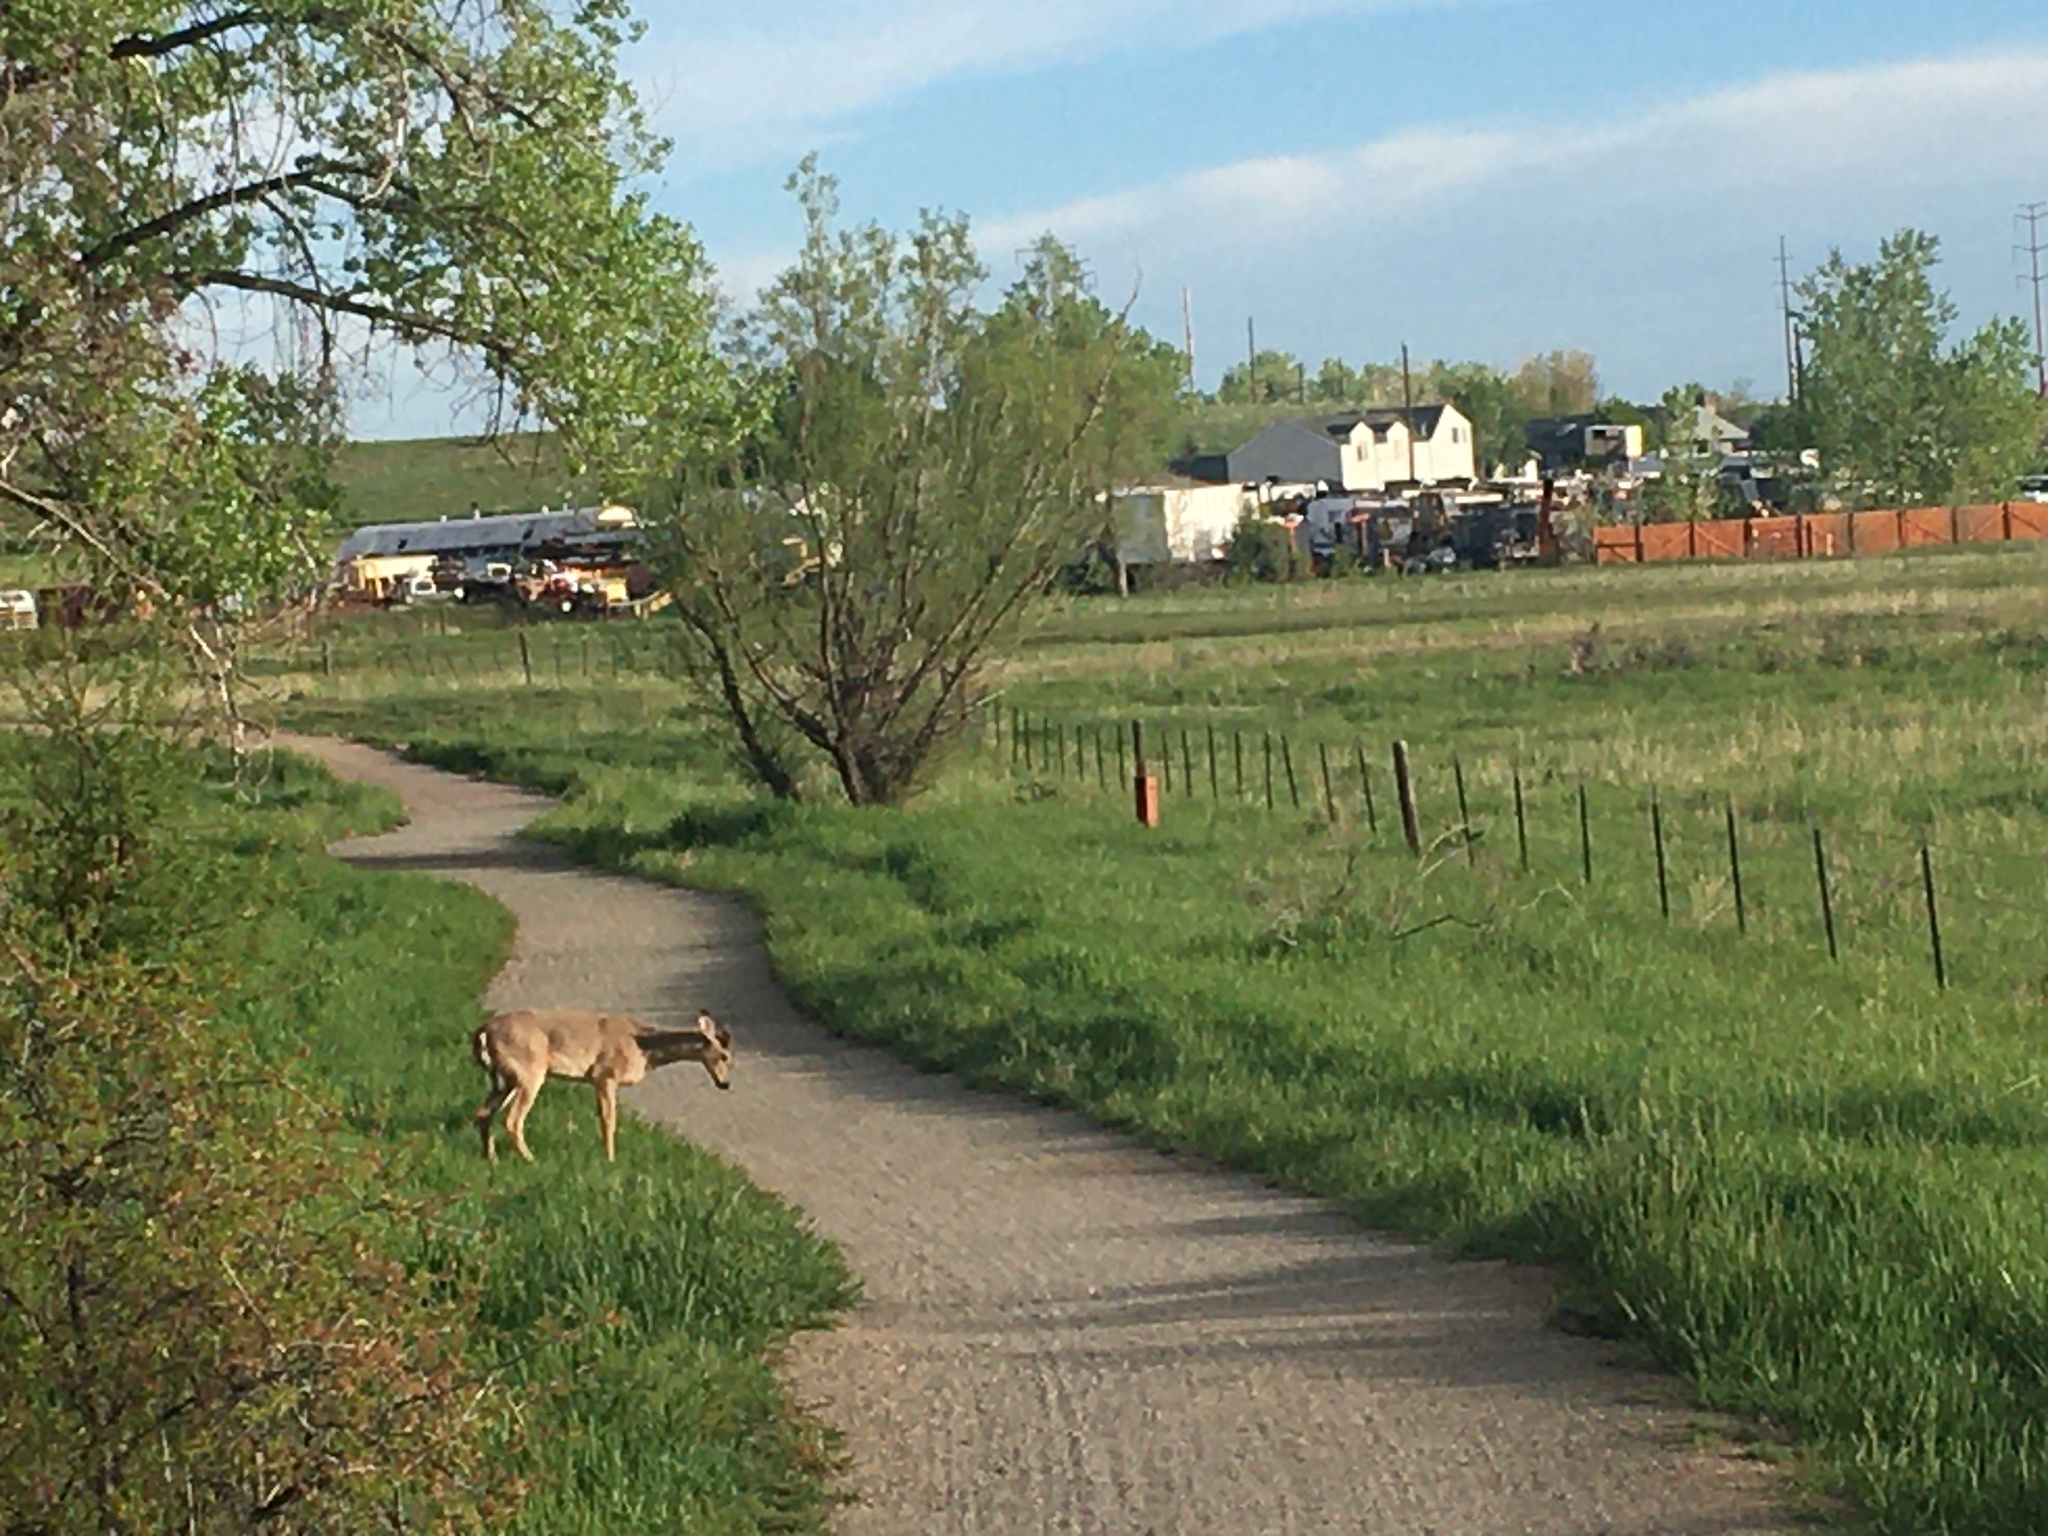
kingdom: Animalia
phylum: Chordata
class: Mammalia
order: Artiodactyla
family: Cervidae
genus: Odocoileus
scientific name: Odocoileus virginianus
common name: White-tailed deer
